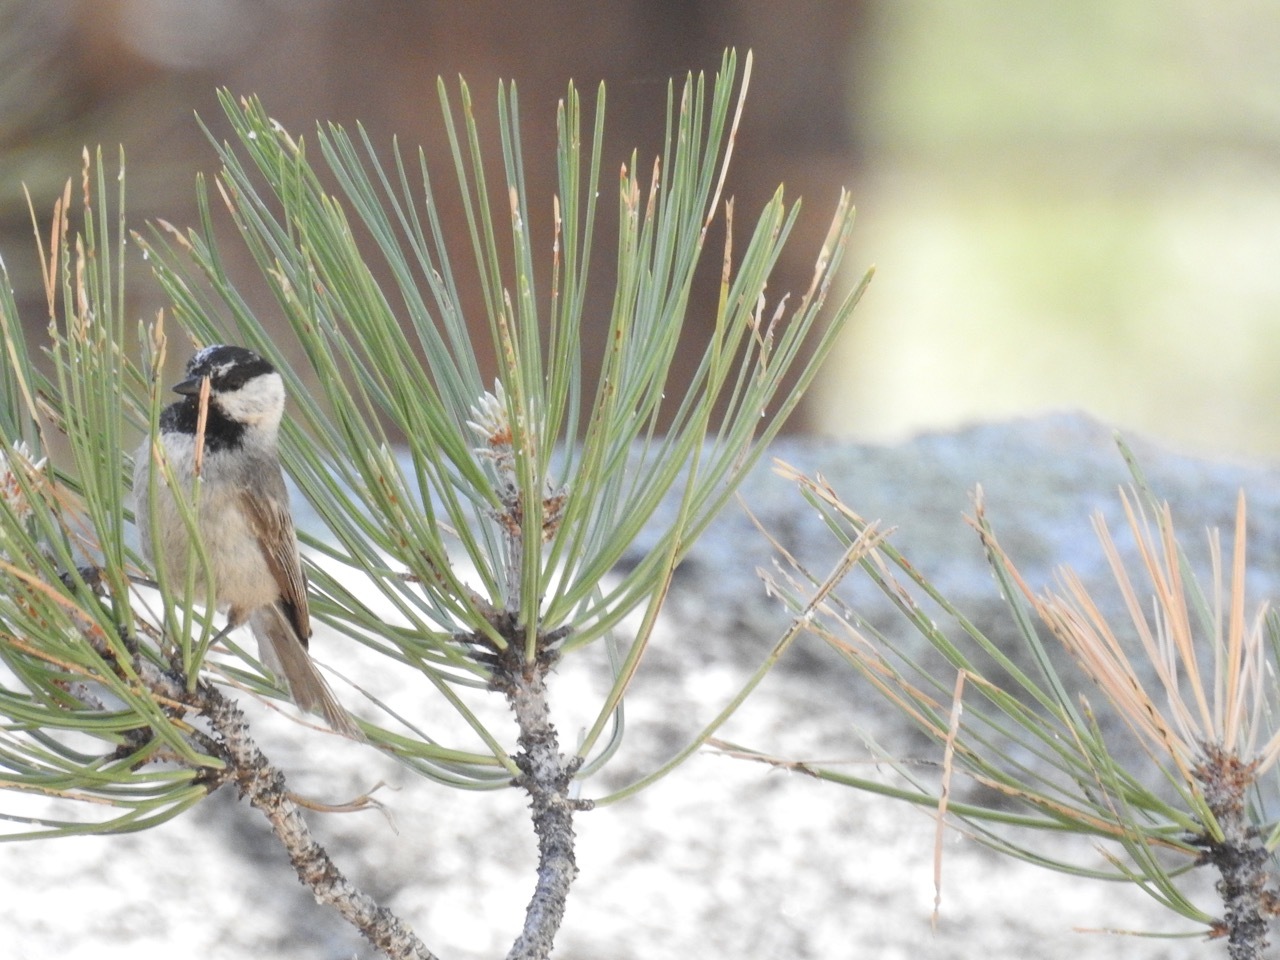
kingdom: Animalia
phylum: Chordata
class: Aves
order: Passeriformes
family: Paridae
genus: Poecile
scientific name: Poecile gambeli
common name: Mountain chickadee
